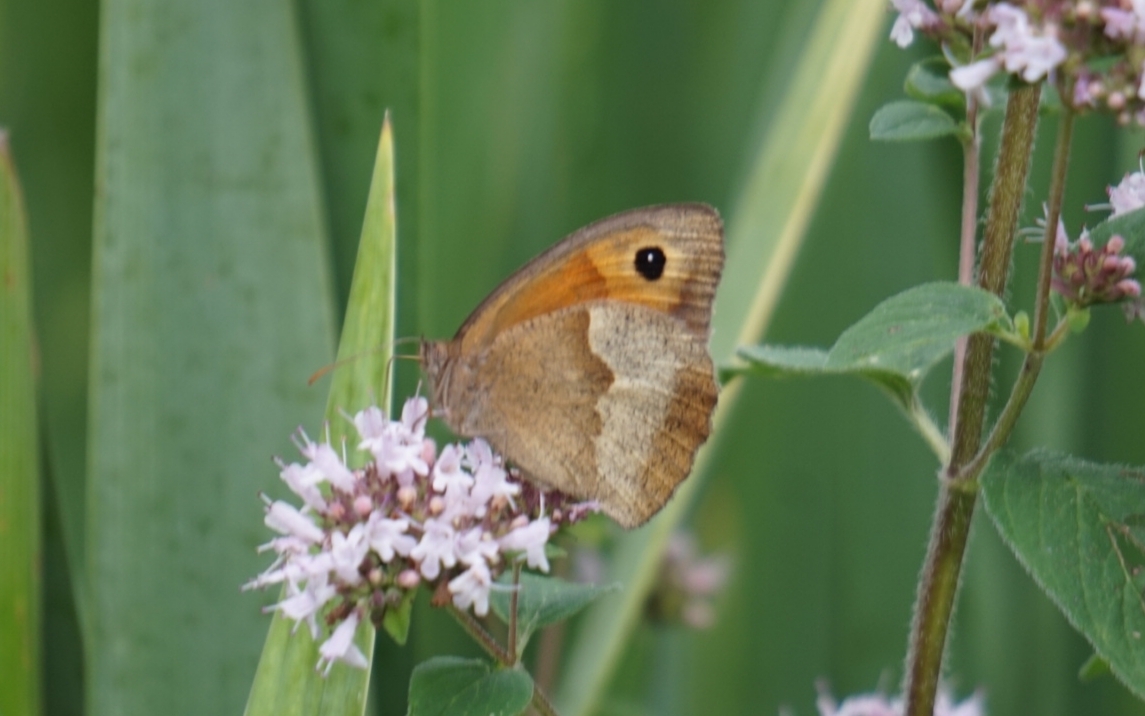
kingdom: Animalia
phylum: Arthropoda
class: Insecta
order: Lepidoptera
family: Nymphalidae
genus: Maniola
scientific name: Maniola jurtina
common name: Meadow brown
